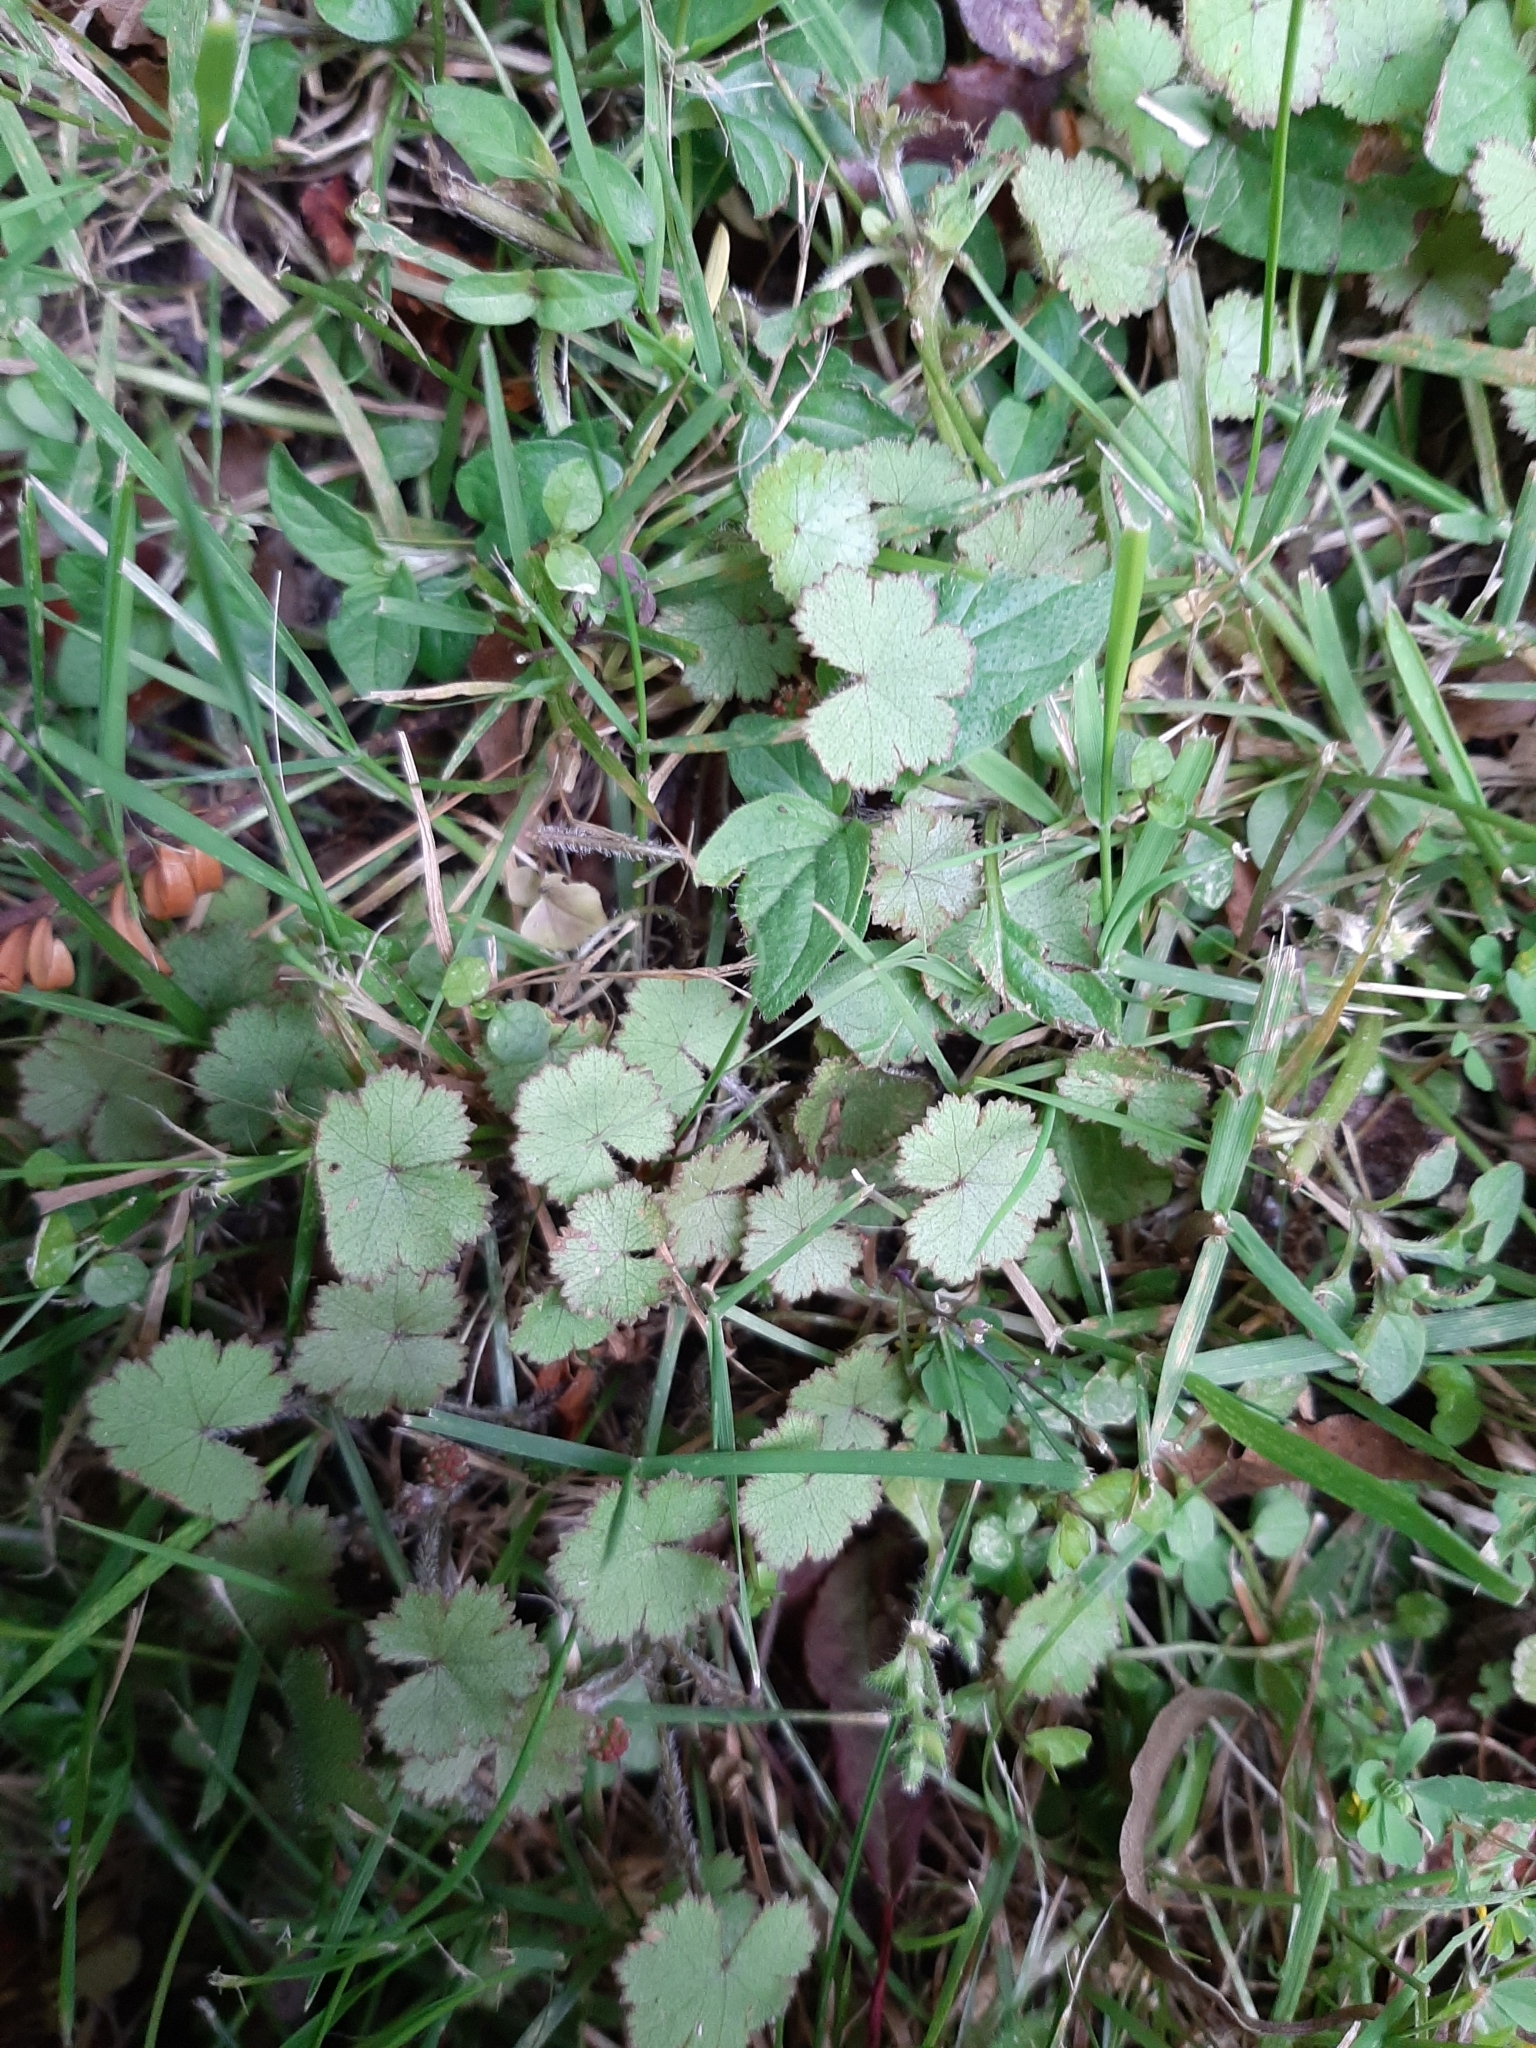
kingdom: Plantae
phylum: Tracheophyta
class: Magnoliopsida
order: Apiales
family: Araliaceae
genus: Hydrocotyle
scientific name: Hydrocotyle moschata
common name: Hairy pennywort
